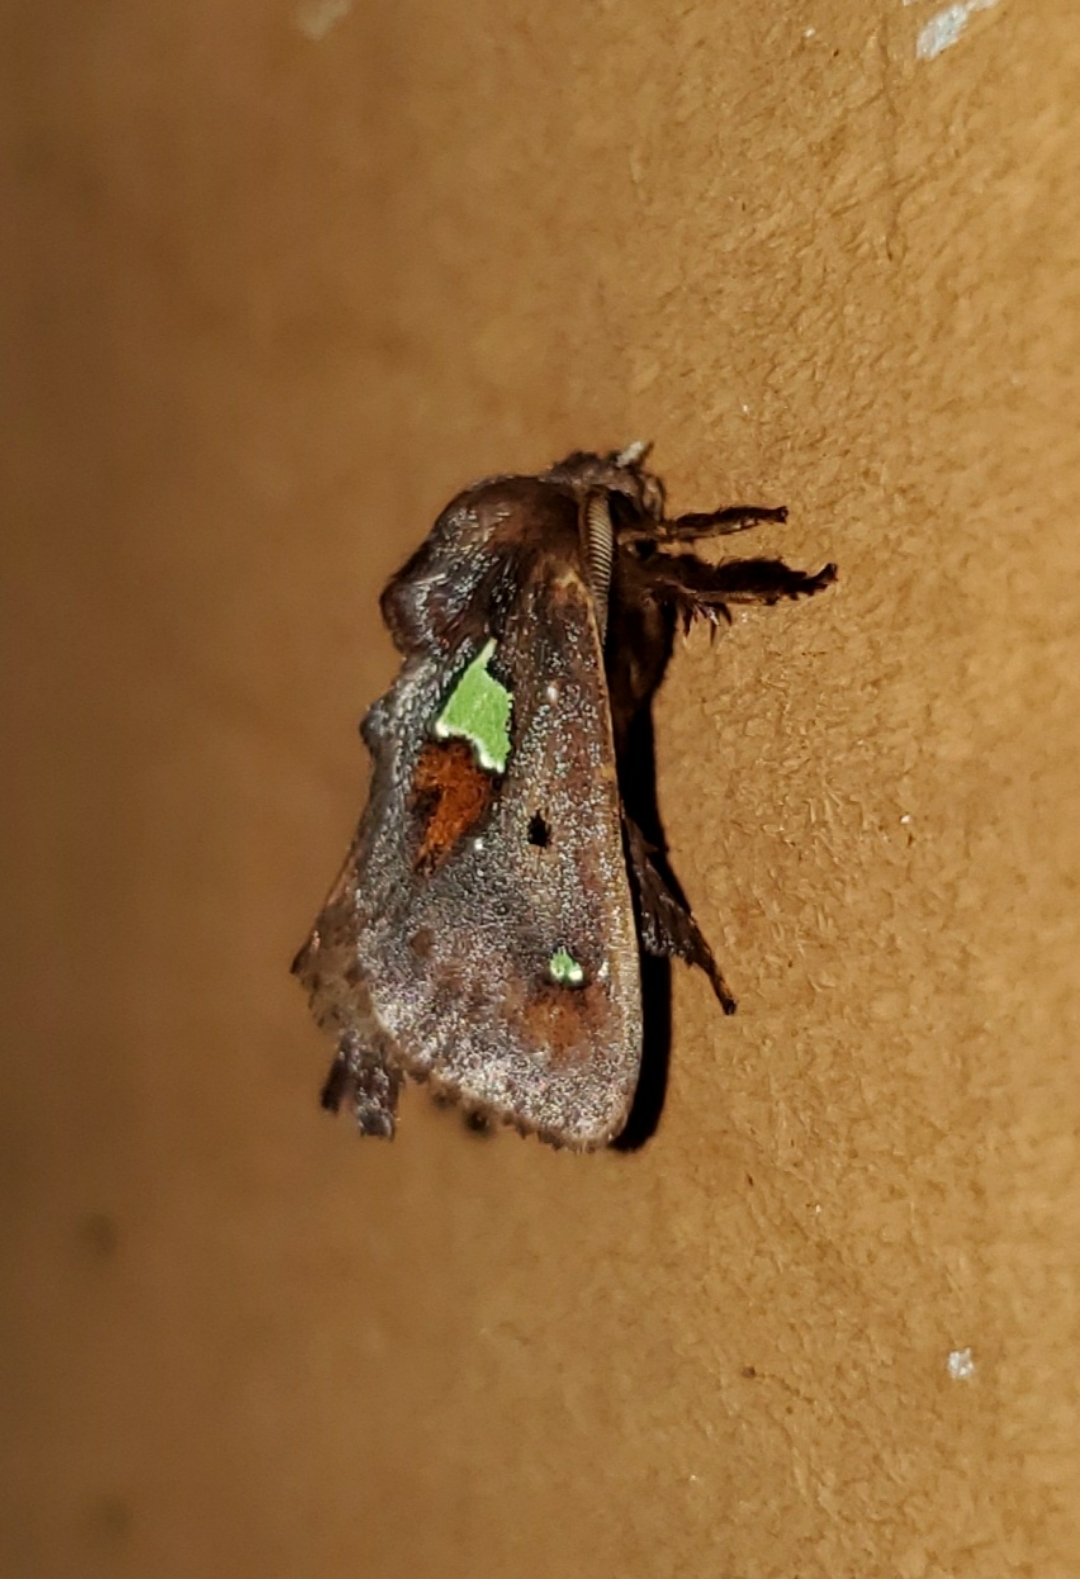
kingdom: Animalia
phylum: Arthropoda
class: Insecta
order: Lepidoptera
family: Limacodidae
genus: Euclea
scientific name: Euclea delphinii
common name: Spiny oak-slug moth
